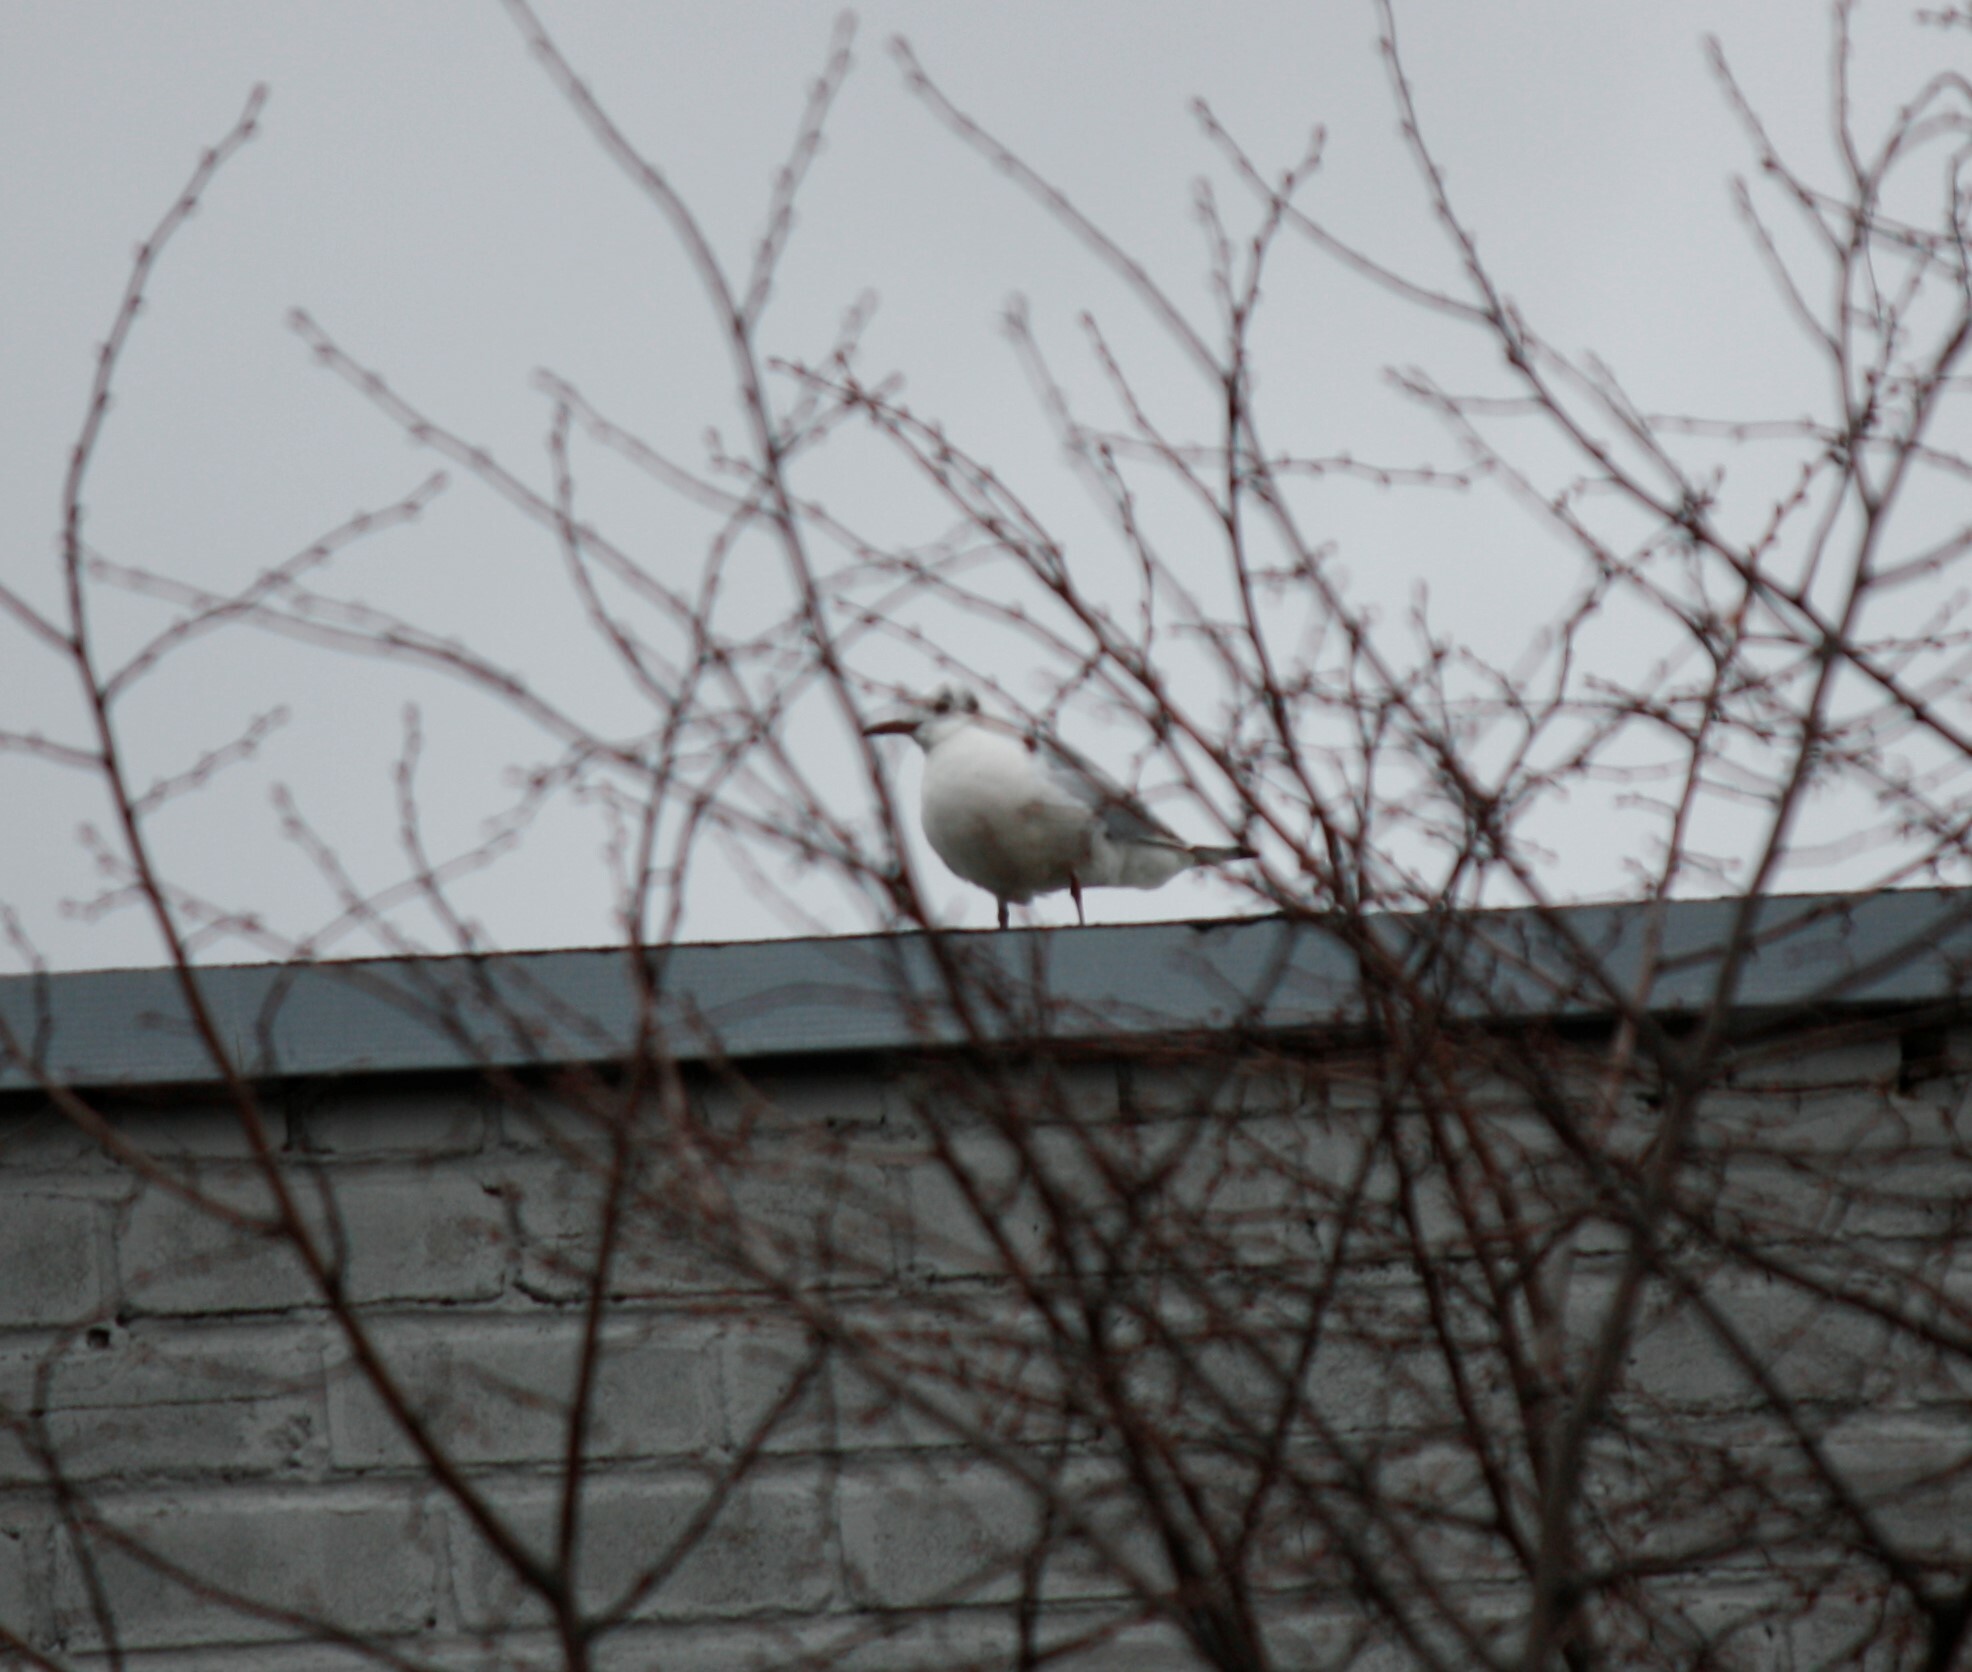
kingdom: Animalia
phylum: Chordata
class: Aves
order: Charadriiformes
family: Laridae
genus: Chroicocephalus
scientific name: Chroicocephalus ridibundus
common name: Black-headed gull
